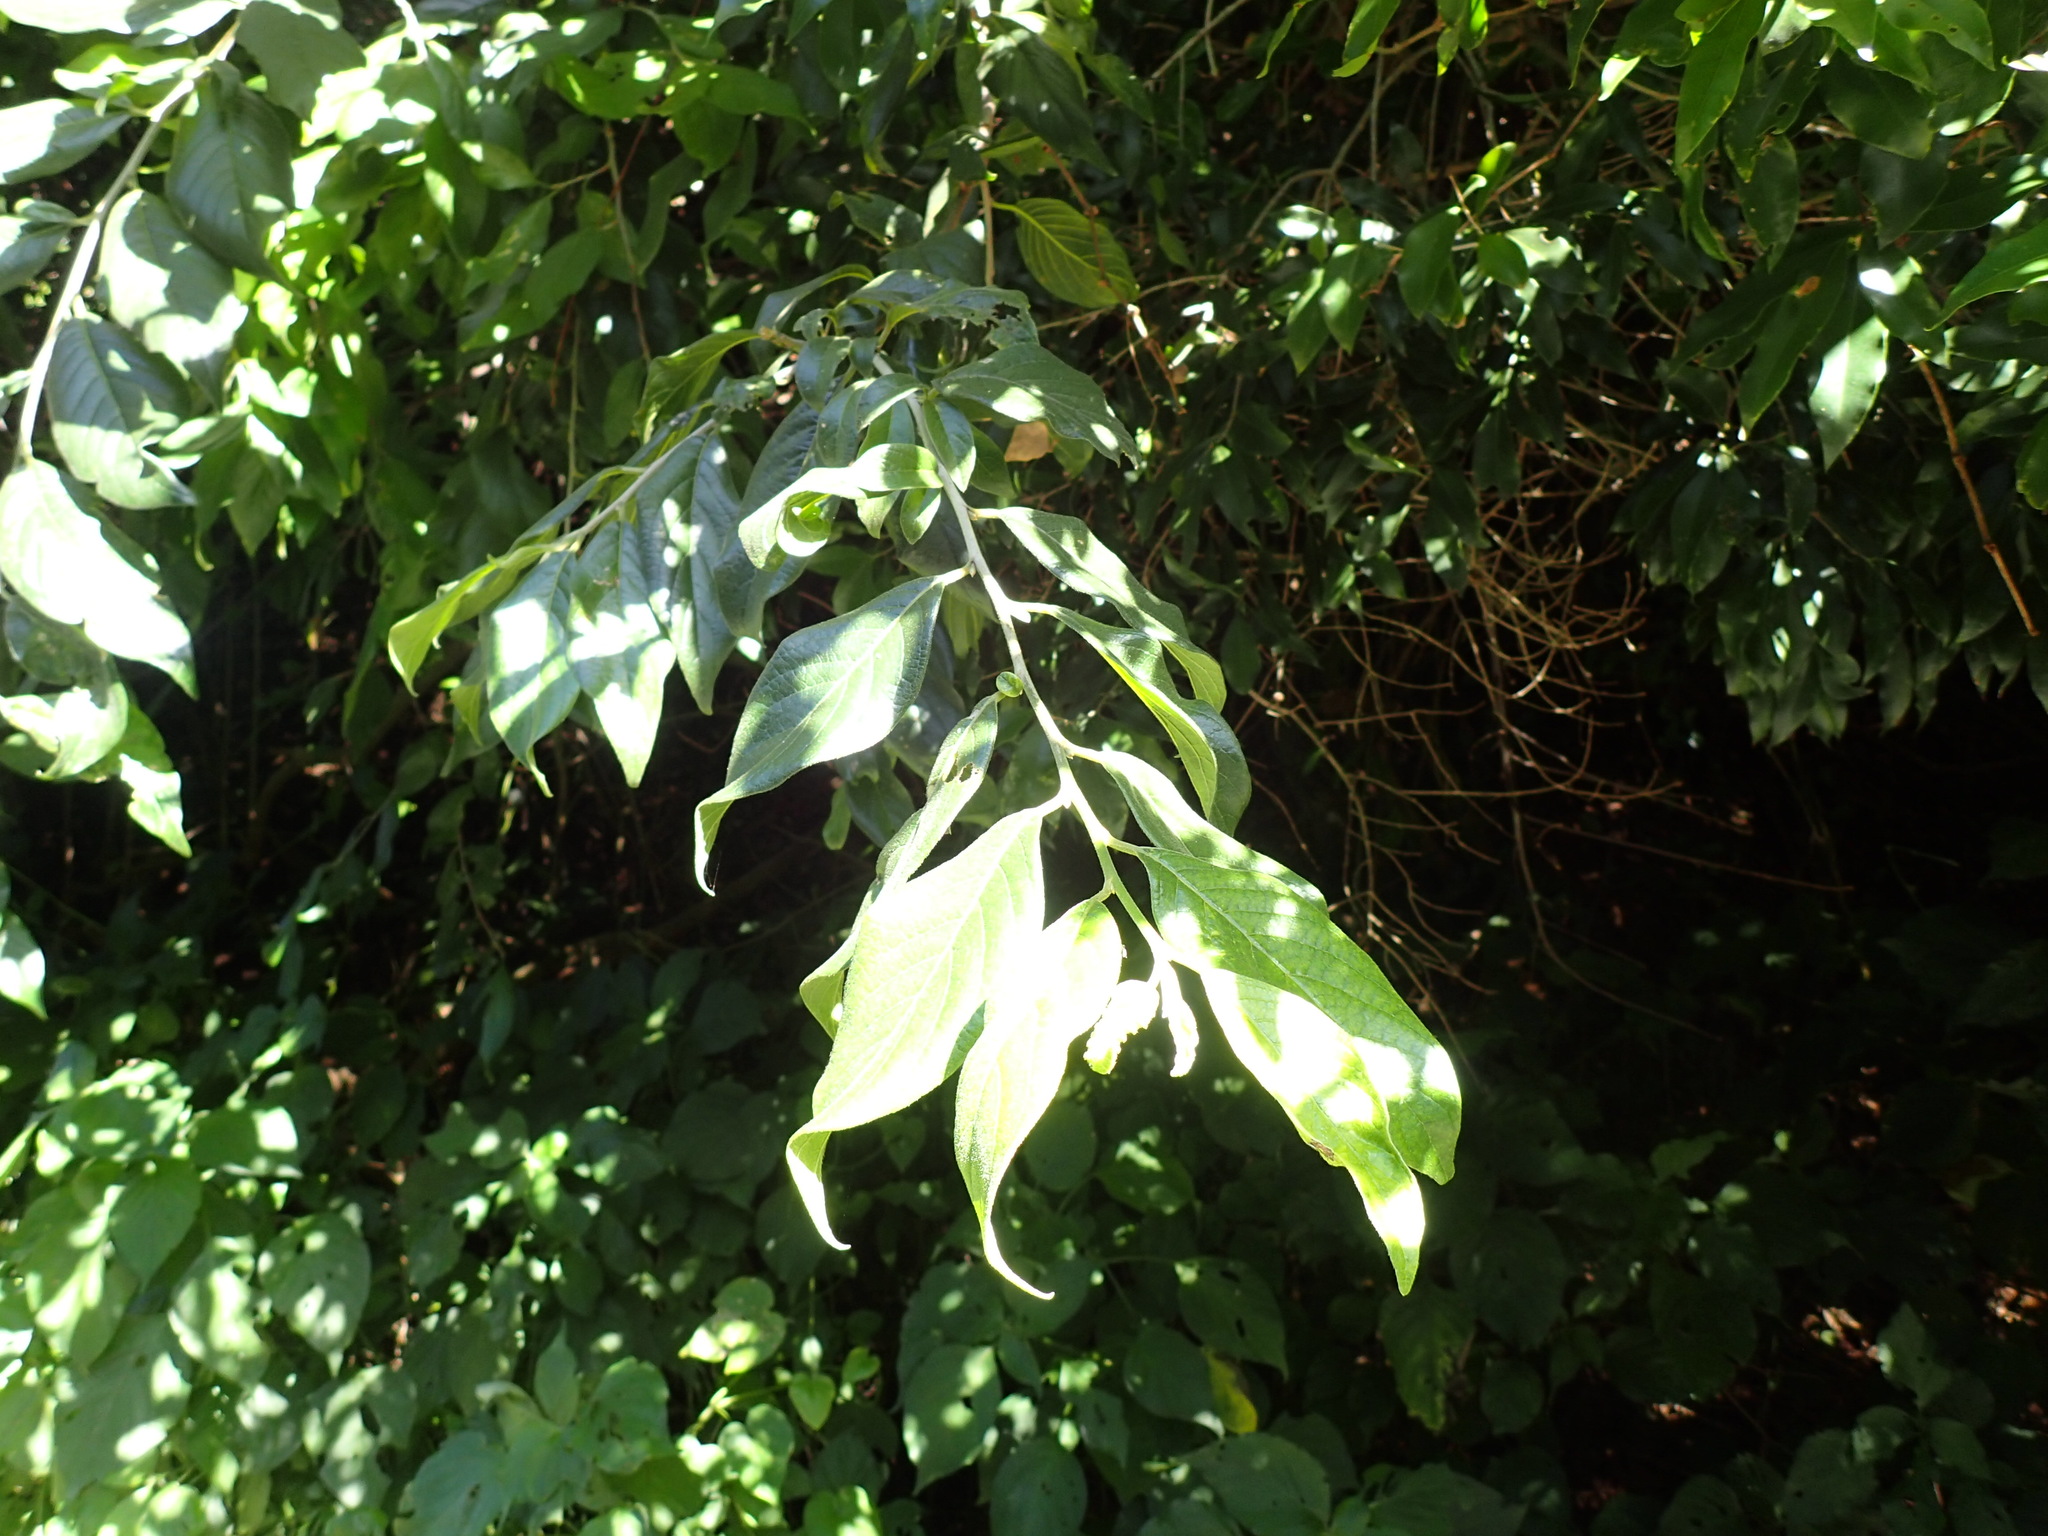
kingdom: Plantae
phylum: Tracheophyta
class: Magnoliopsida
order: Sapindales
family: Meliaceae
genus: Turraea
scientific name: Turraea floribunda
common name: Honeysuckle tree
